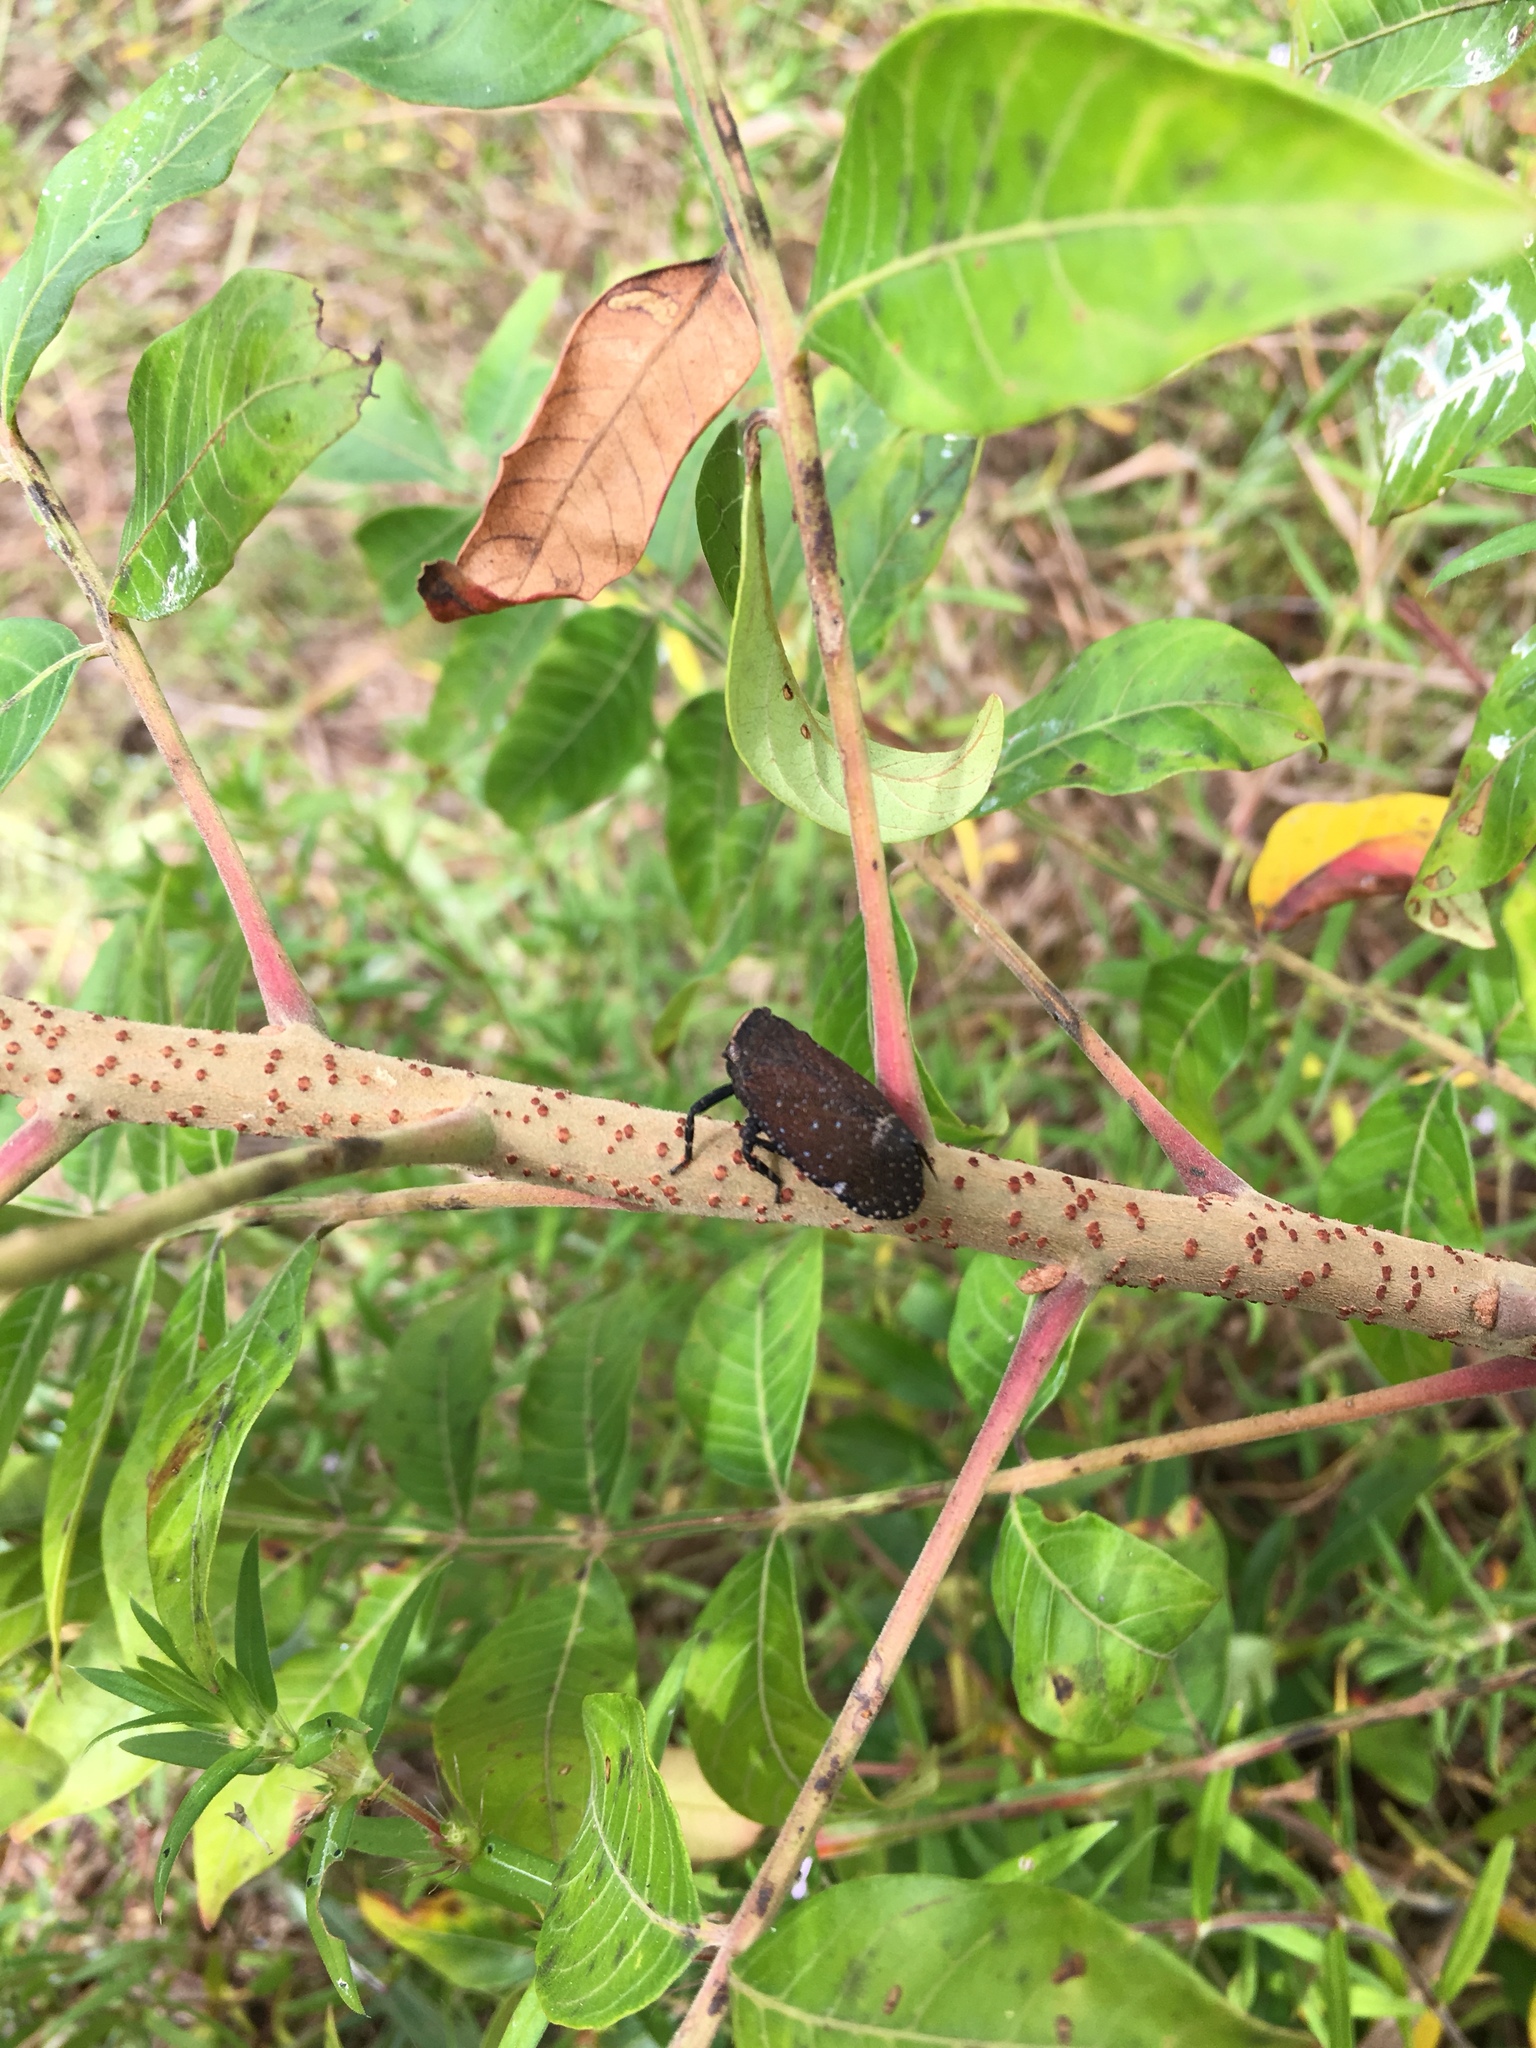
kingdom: Animalia
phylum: Arthropoda
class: Insecta
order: Hemiptera
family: Fulgoridae
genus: Crepusia
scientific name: Crepusia fuliginosa
